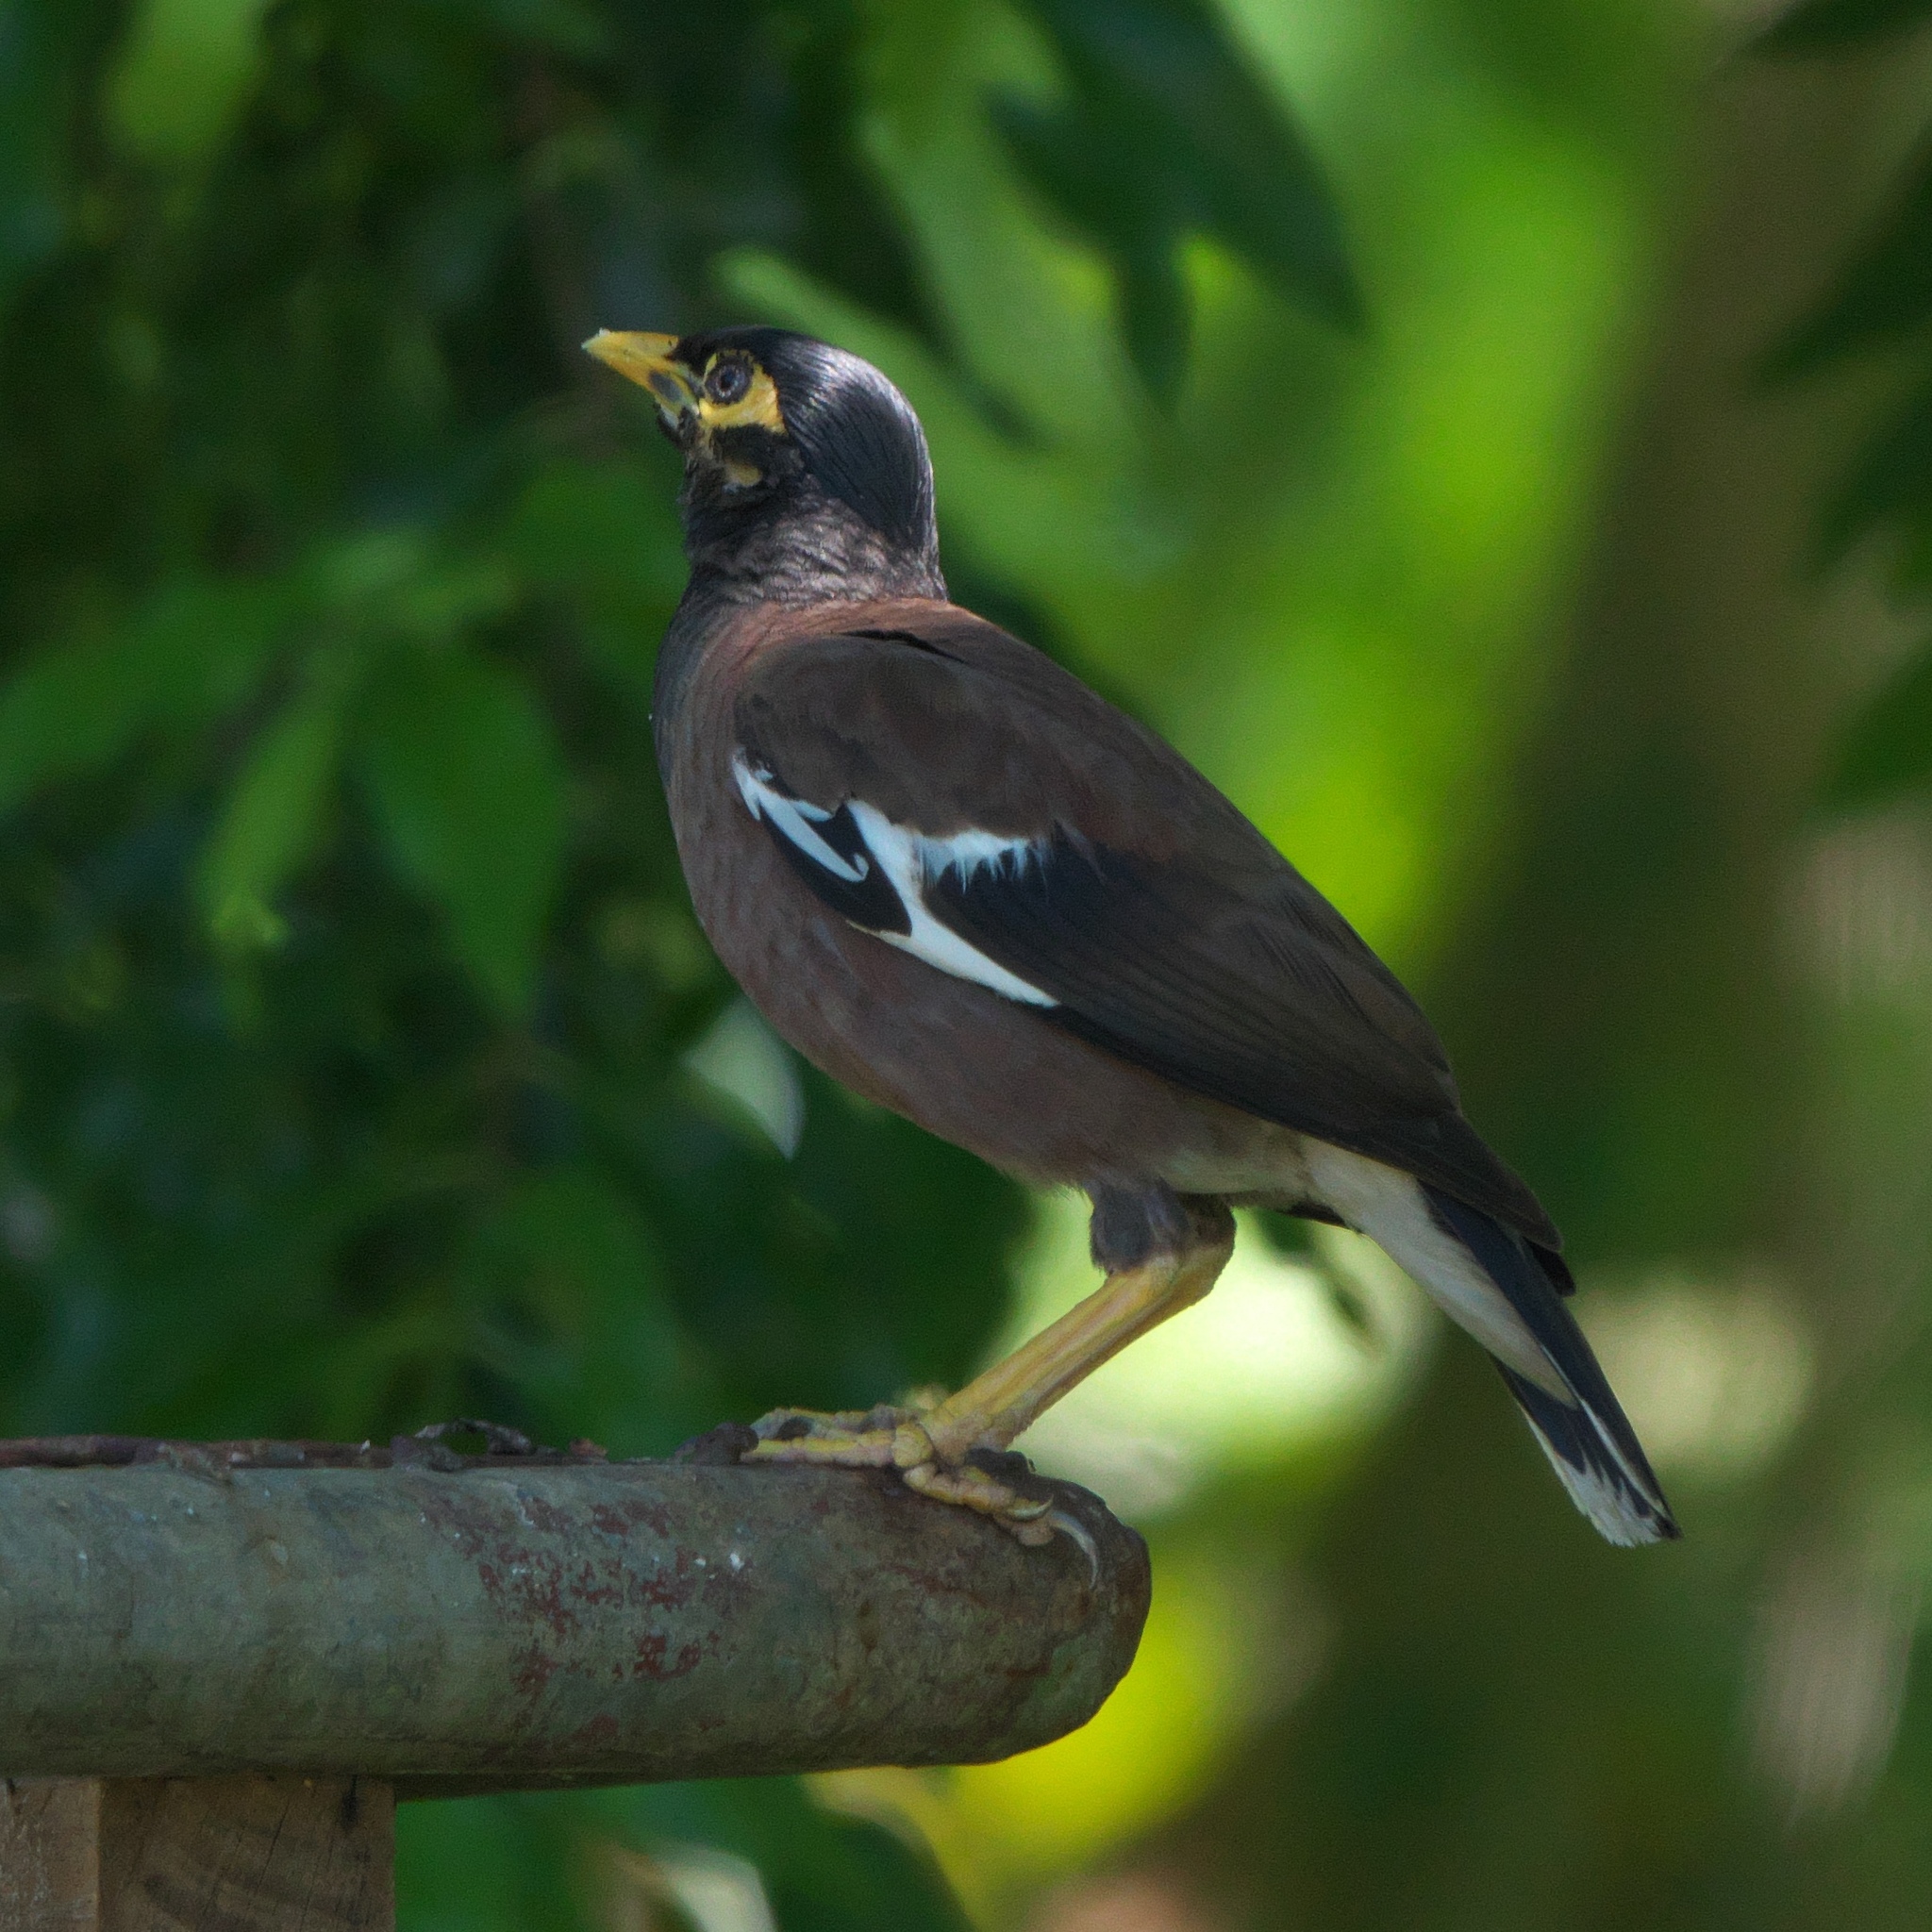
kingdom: Animalia
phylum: Chordata
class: Aves
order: Passeriformes
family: Sturnidae
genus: Acridotheres
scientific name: Acridotheres tristis
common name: Common myna
